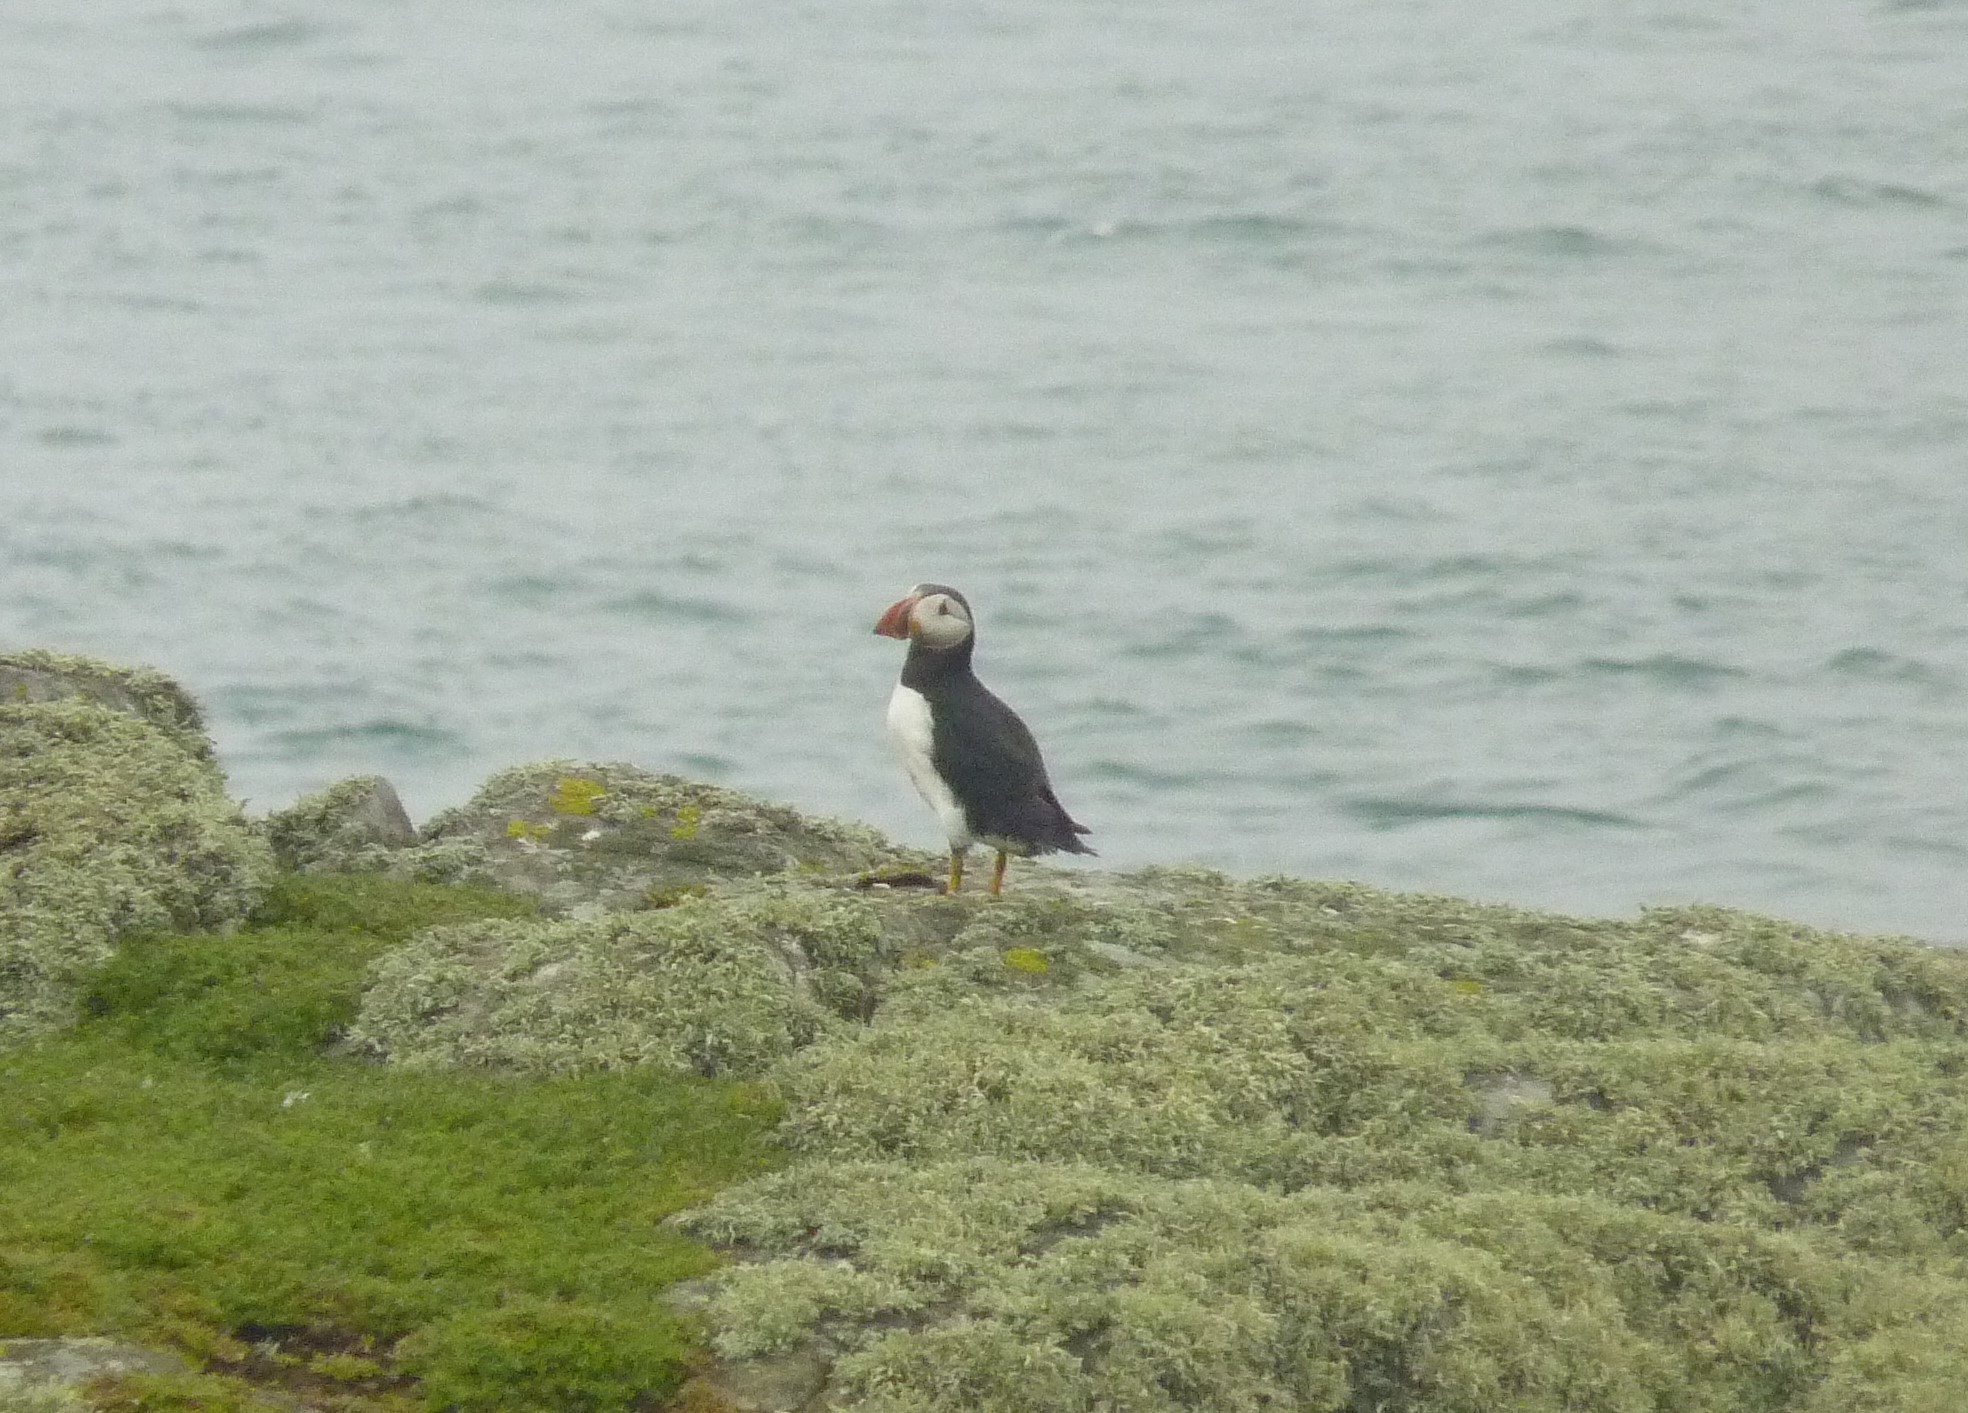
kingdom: Animalia
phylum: Chordata
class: Aves
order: Charadriiformes
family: Alcidae
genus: Fratercula
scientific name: Fratercula arctica
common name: Atlantic puffin
